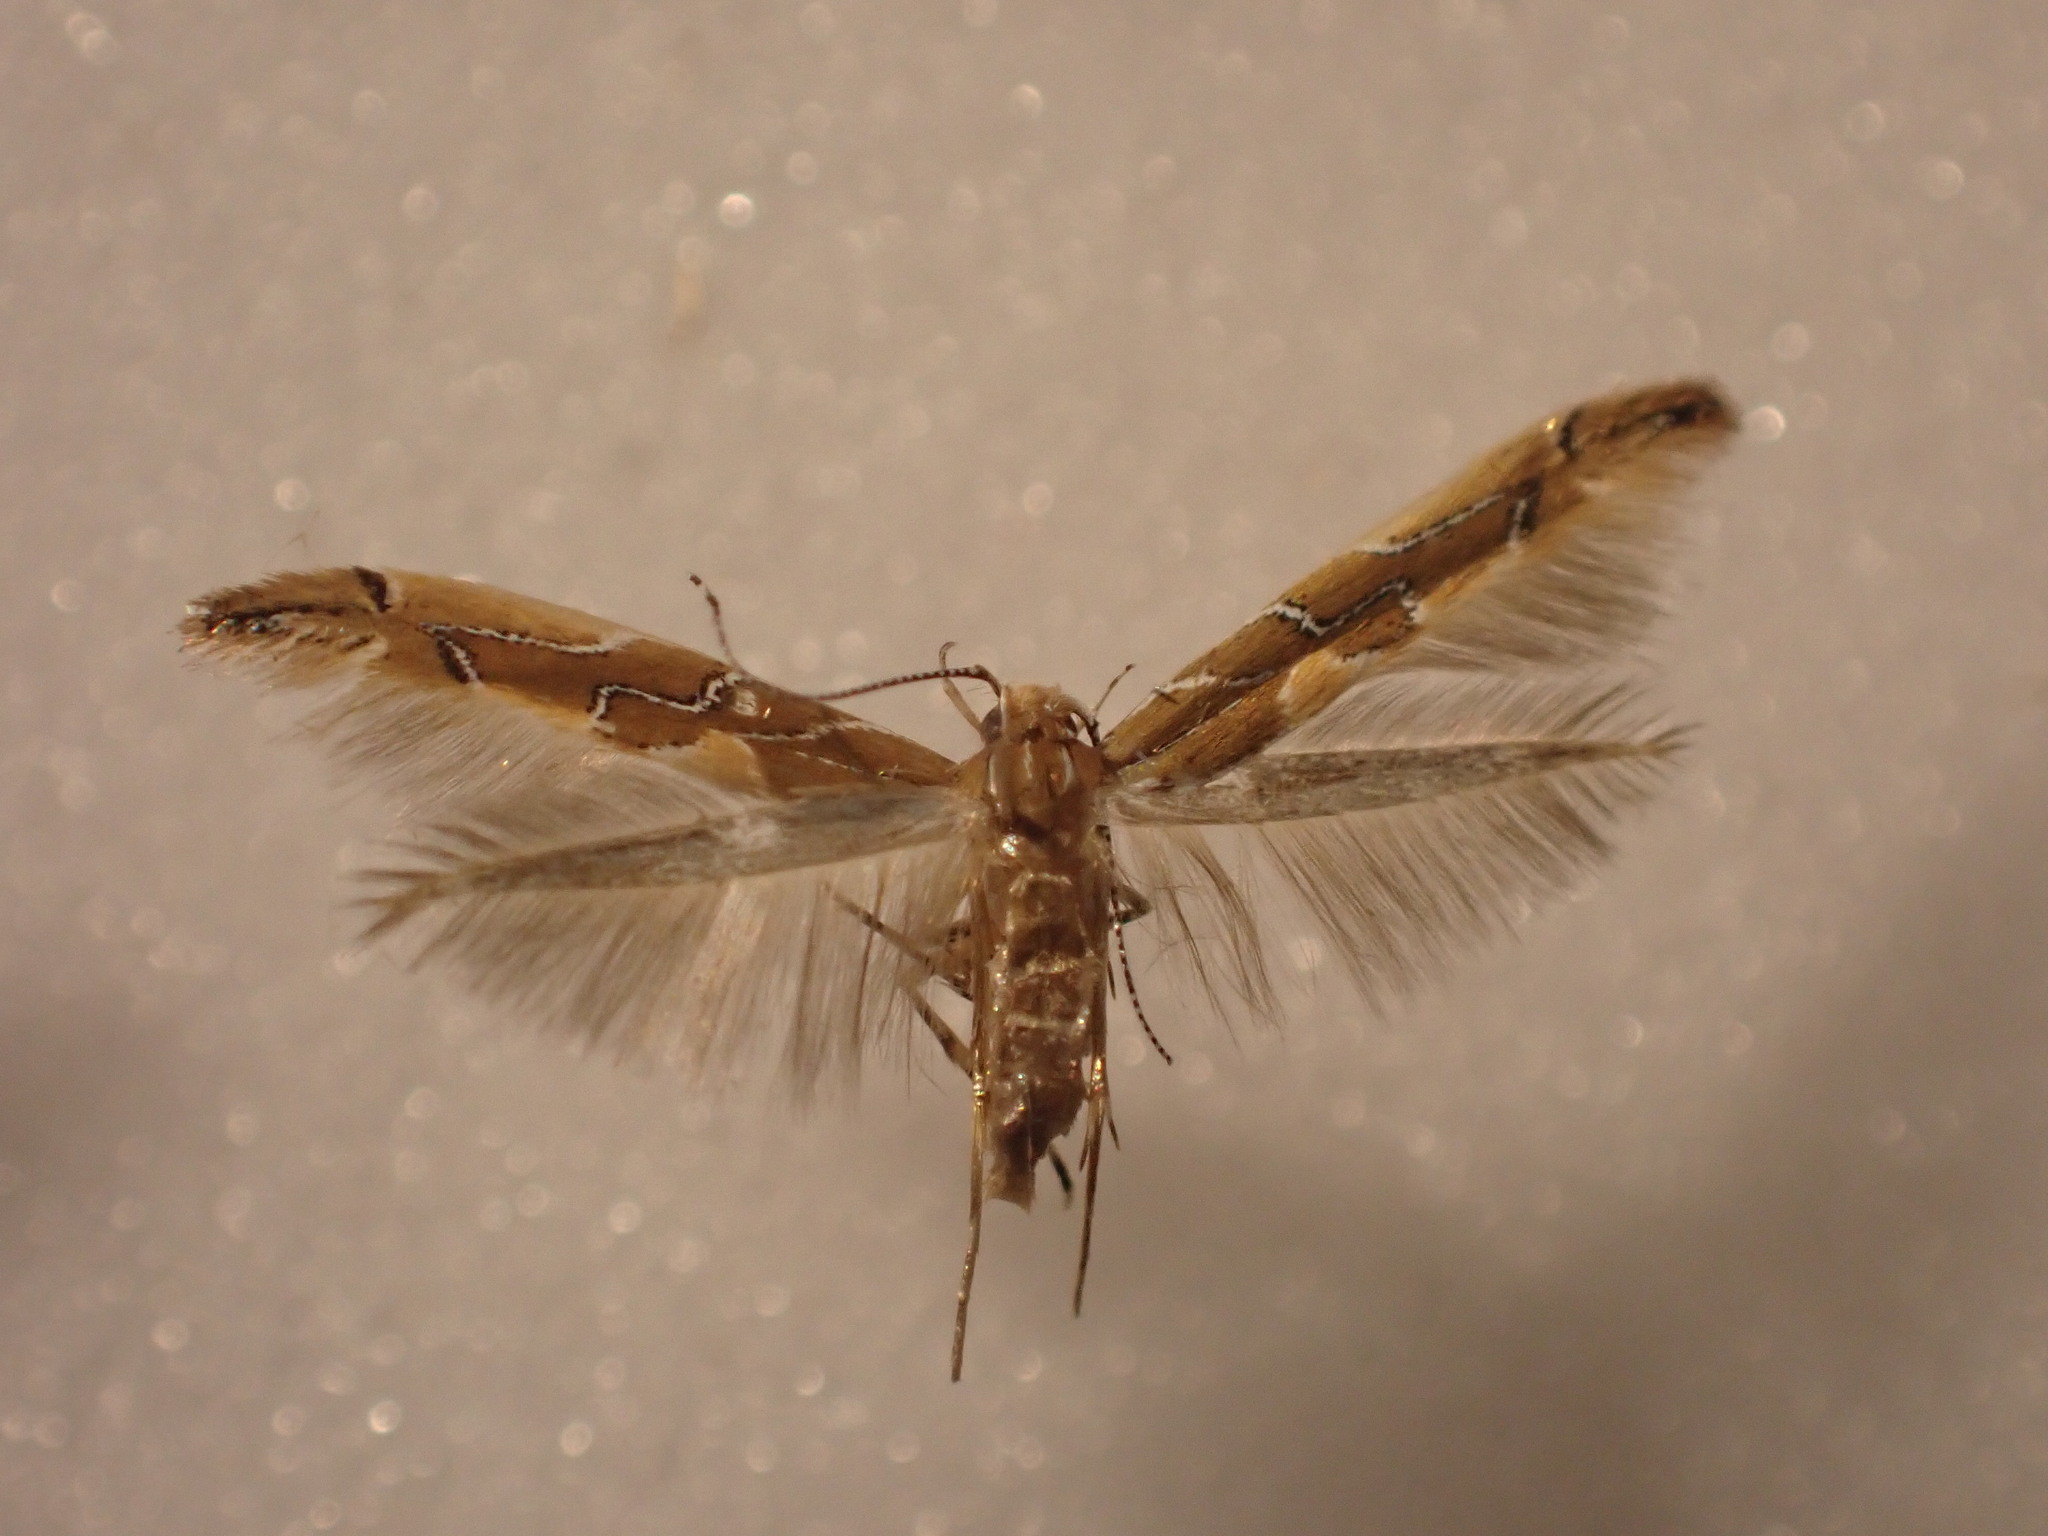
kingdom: Animalia
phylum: Arthropoda
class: Insecta
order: Lepidoptera
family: Cosmopterigidae
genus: Pyroderces
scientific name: Pyroderces apparitella
